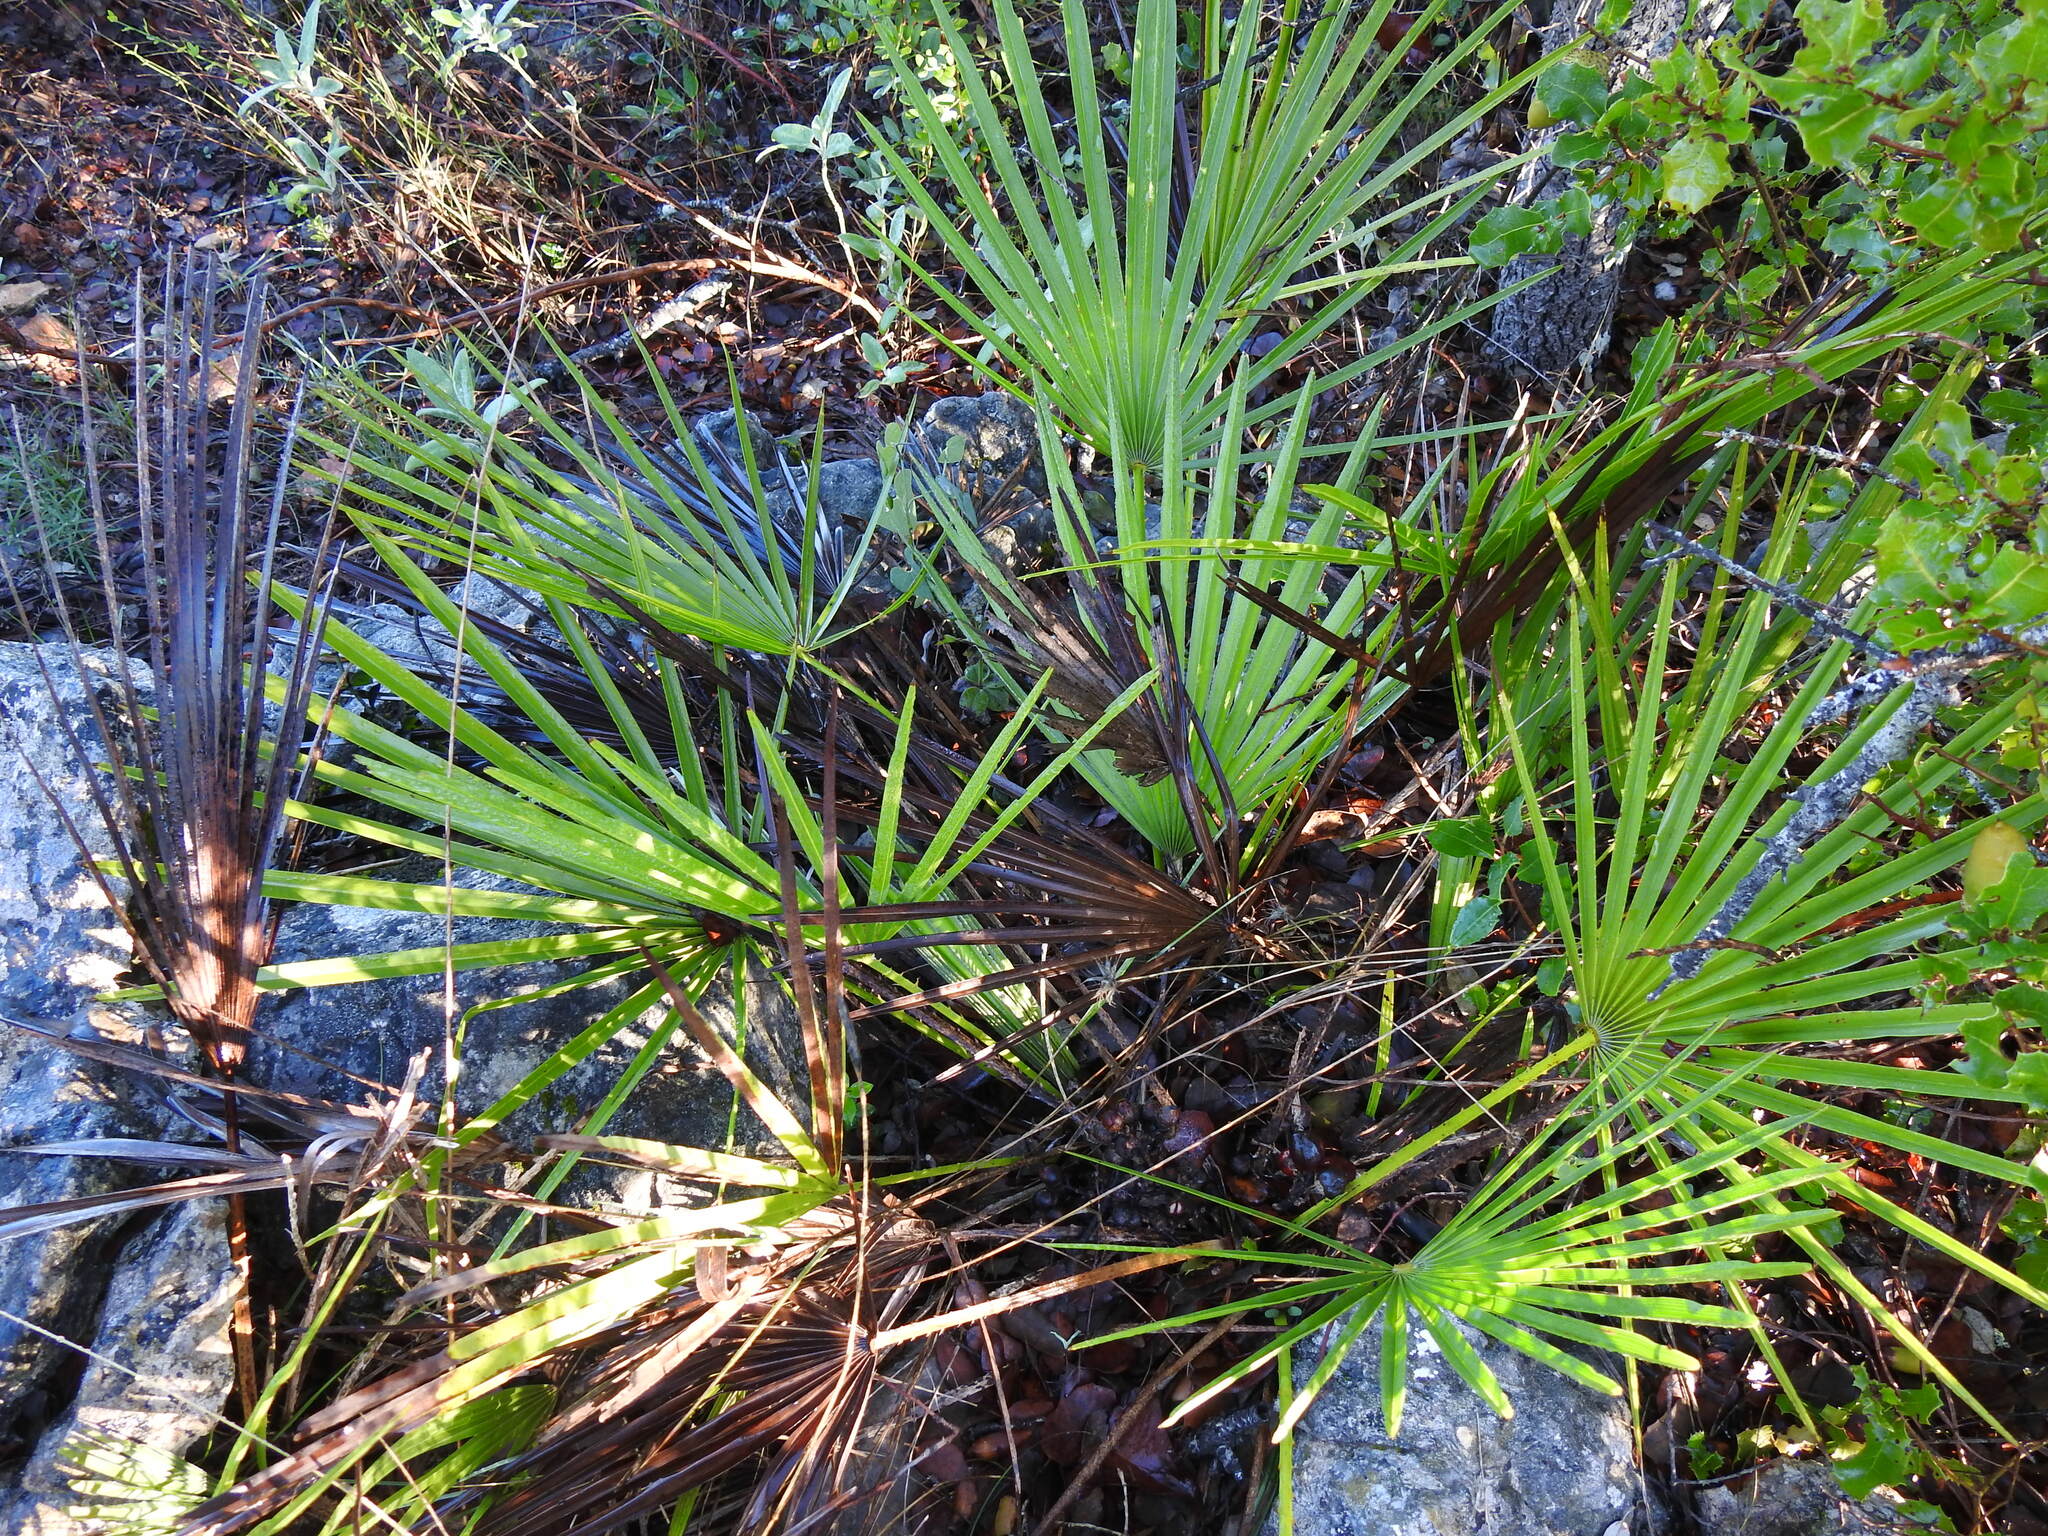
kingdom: Plantae
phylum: Tracheophyta
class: Liliopsida
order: Arecales
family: Arecaceae
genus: Chamaerops
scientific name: Chamaerops humilis
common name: Dwarf fan palm
